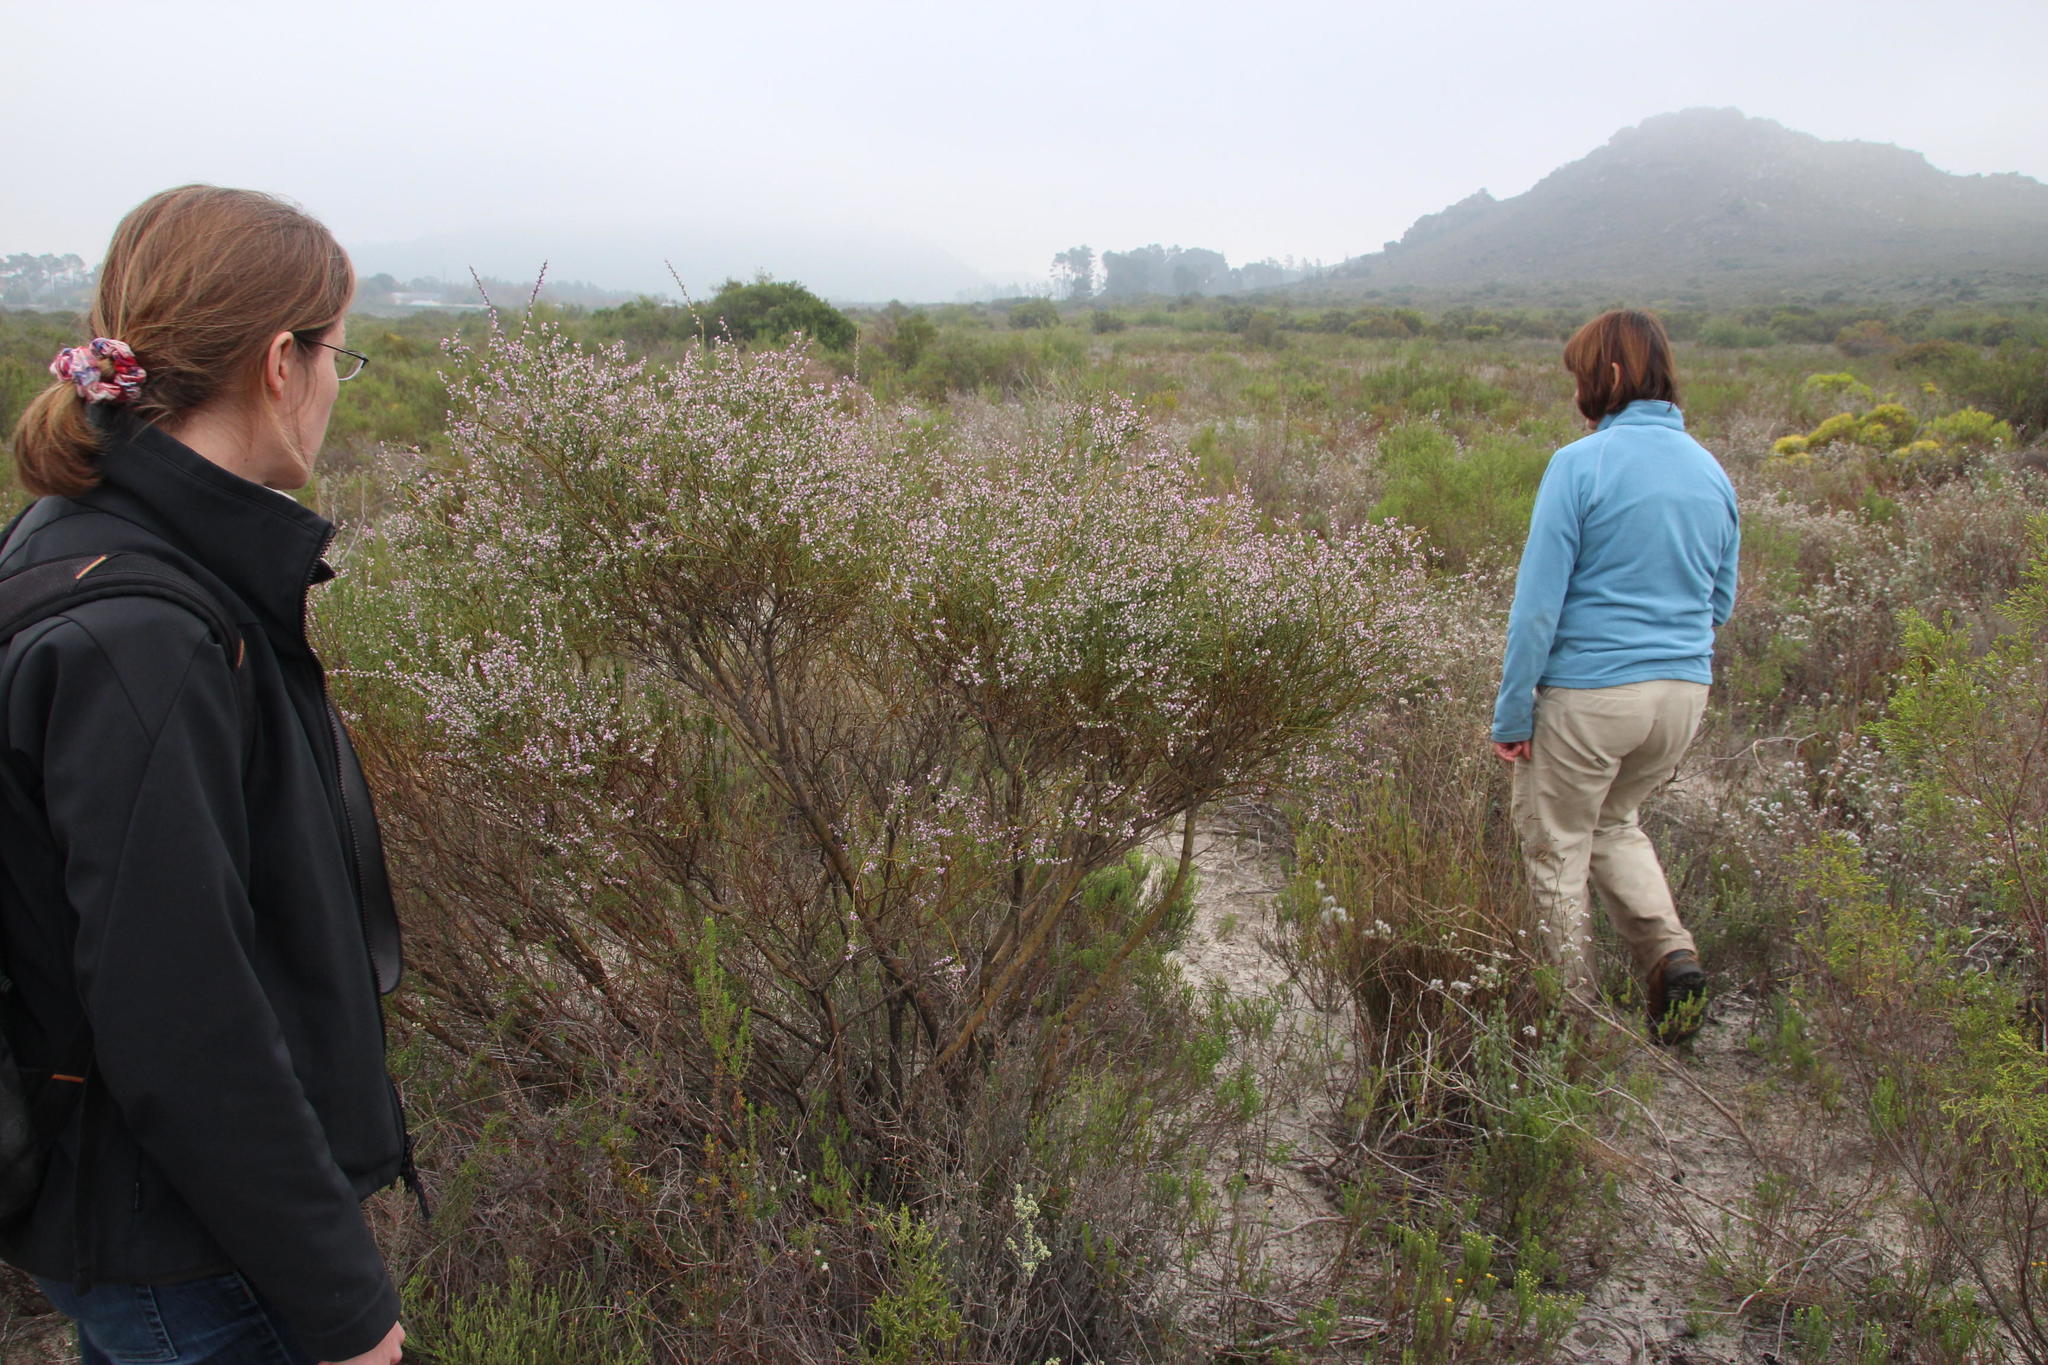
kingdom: Plantae
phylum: Tracheophyta
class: Magnoliopsida
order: Fabales
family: Polygalaceae
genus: Muraltia
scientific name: Muraltia spinosa
